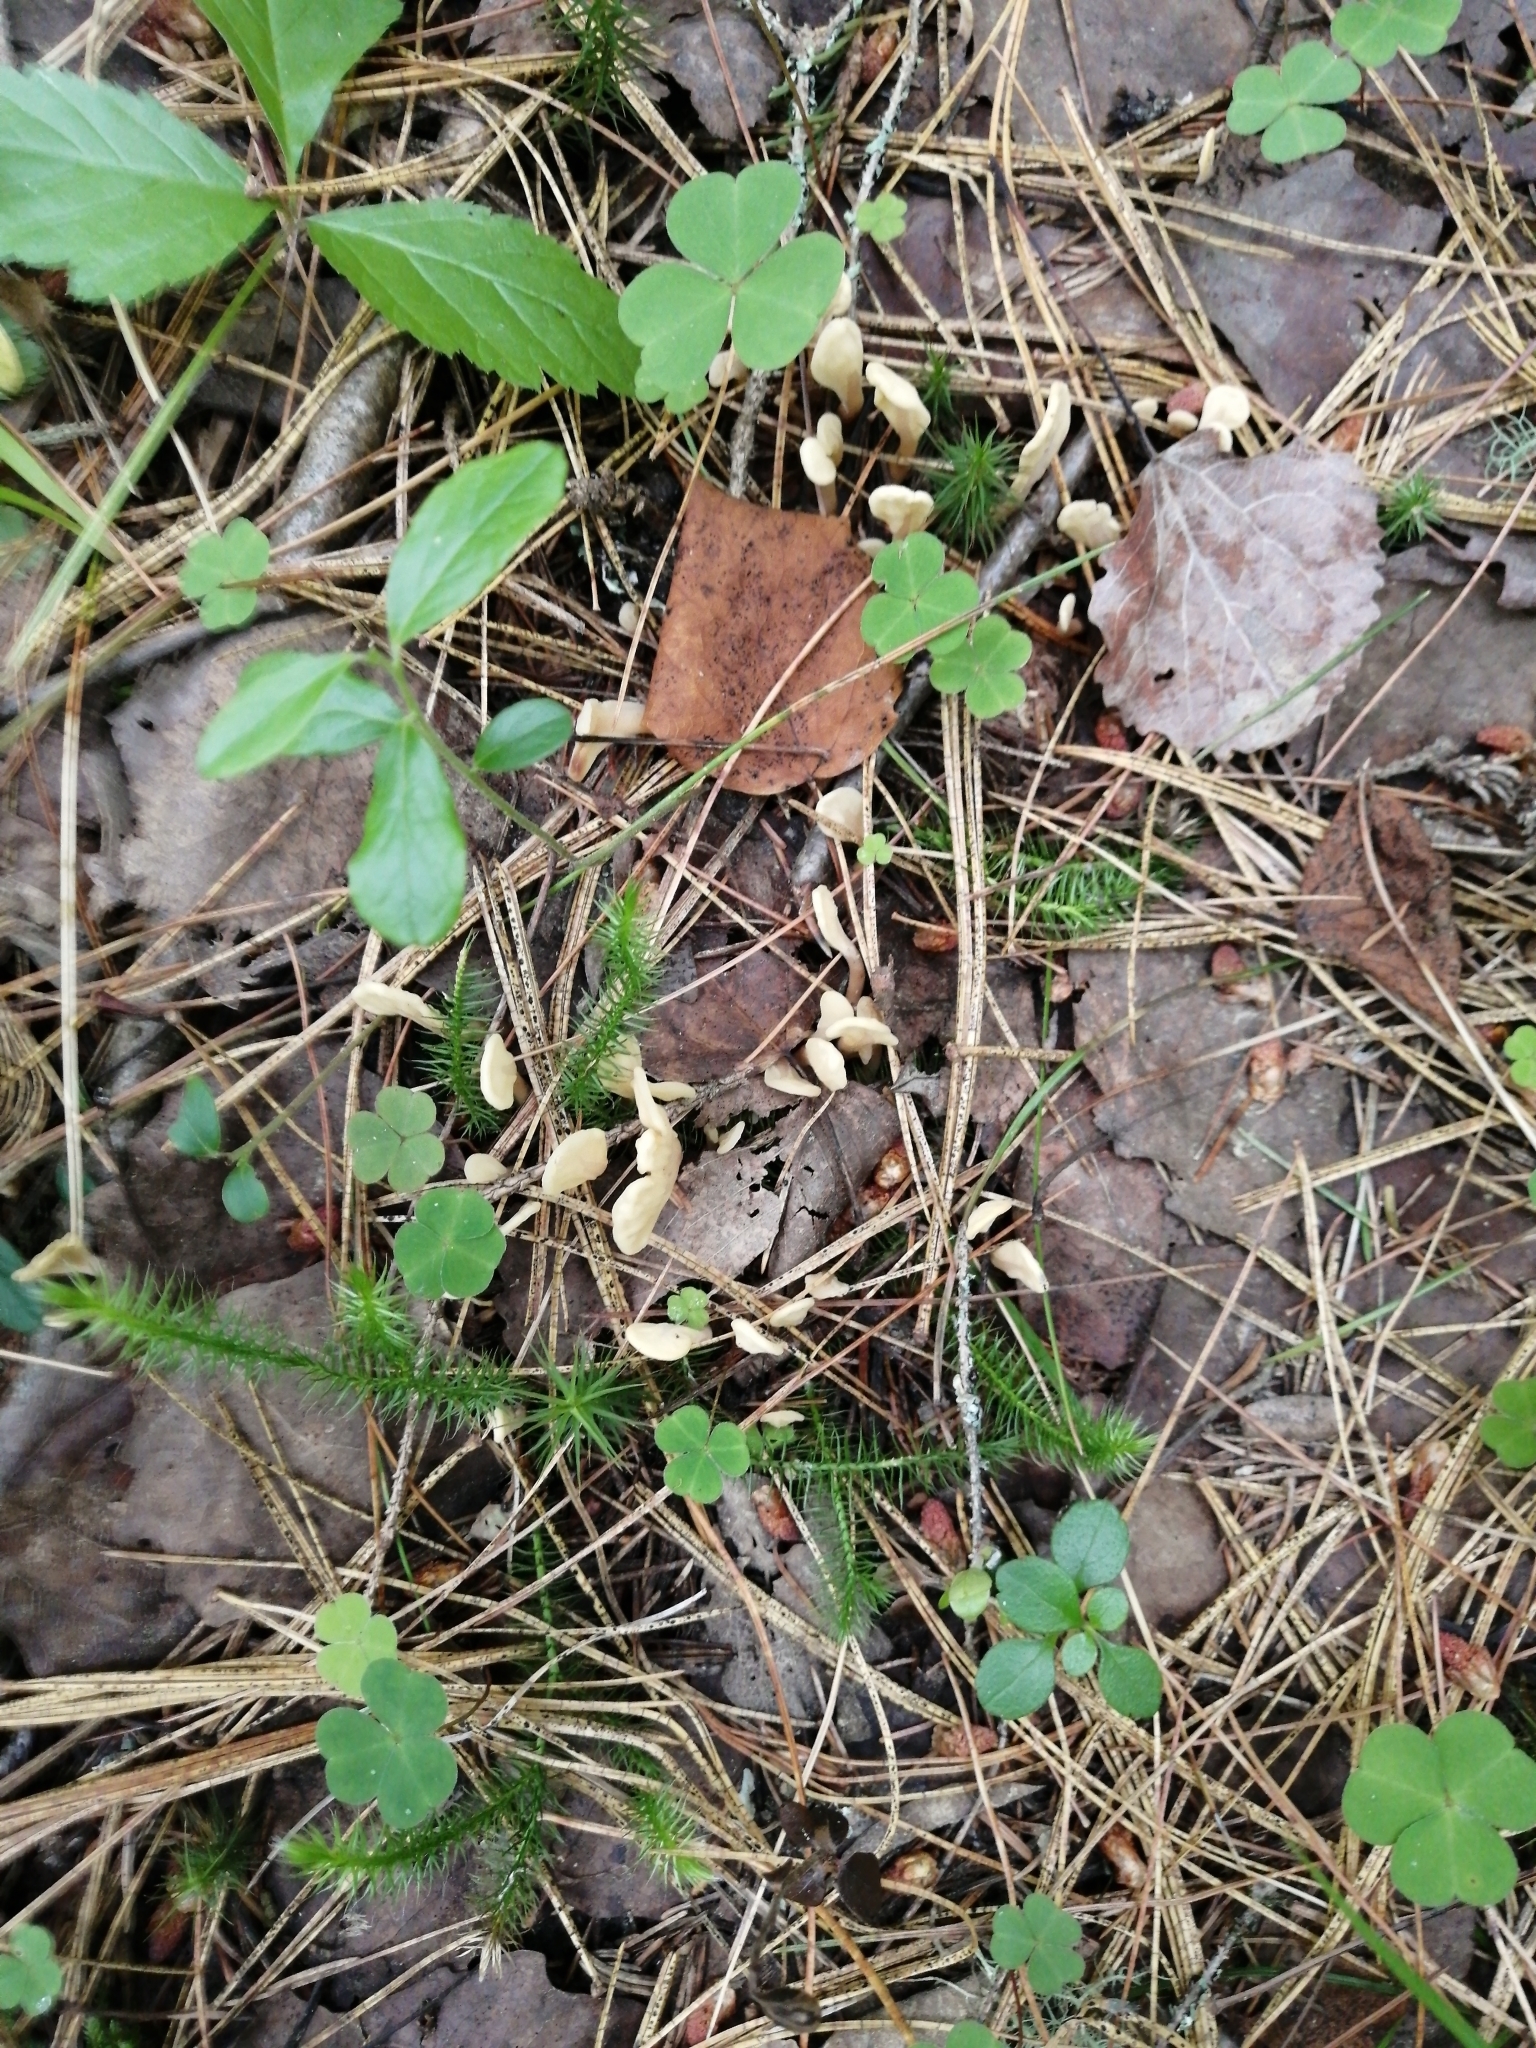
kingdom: Fungi
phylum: Ascomycota
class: Leotiomycetes
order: Rhytismatales
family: Cudoniaceae
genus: Spathularia
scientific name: Spathularia rufa
